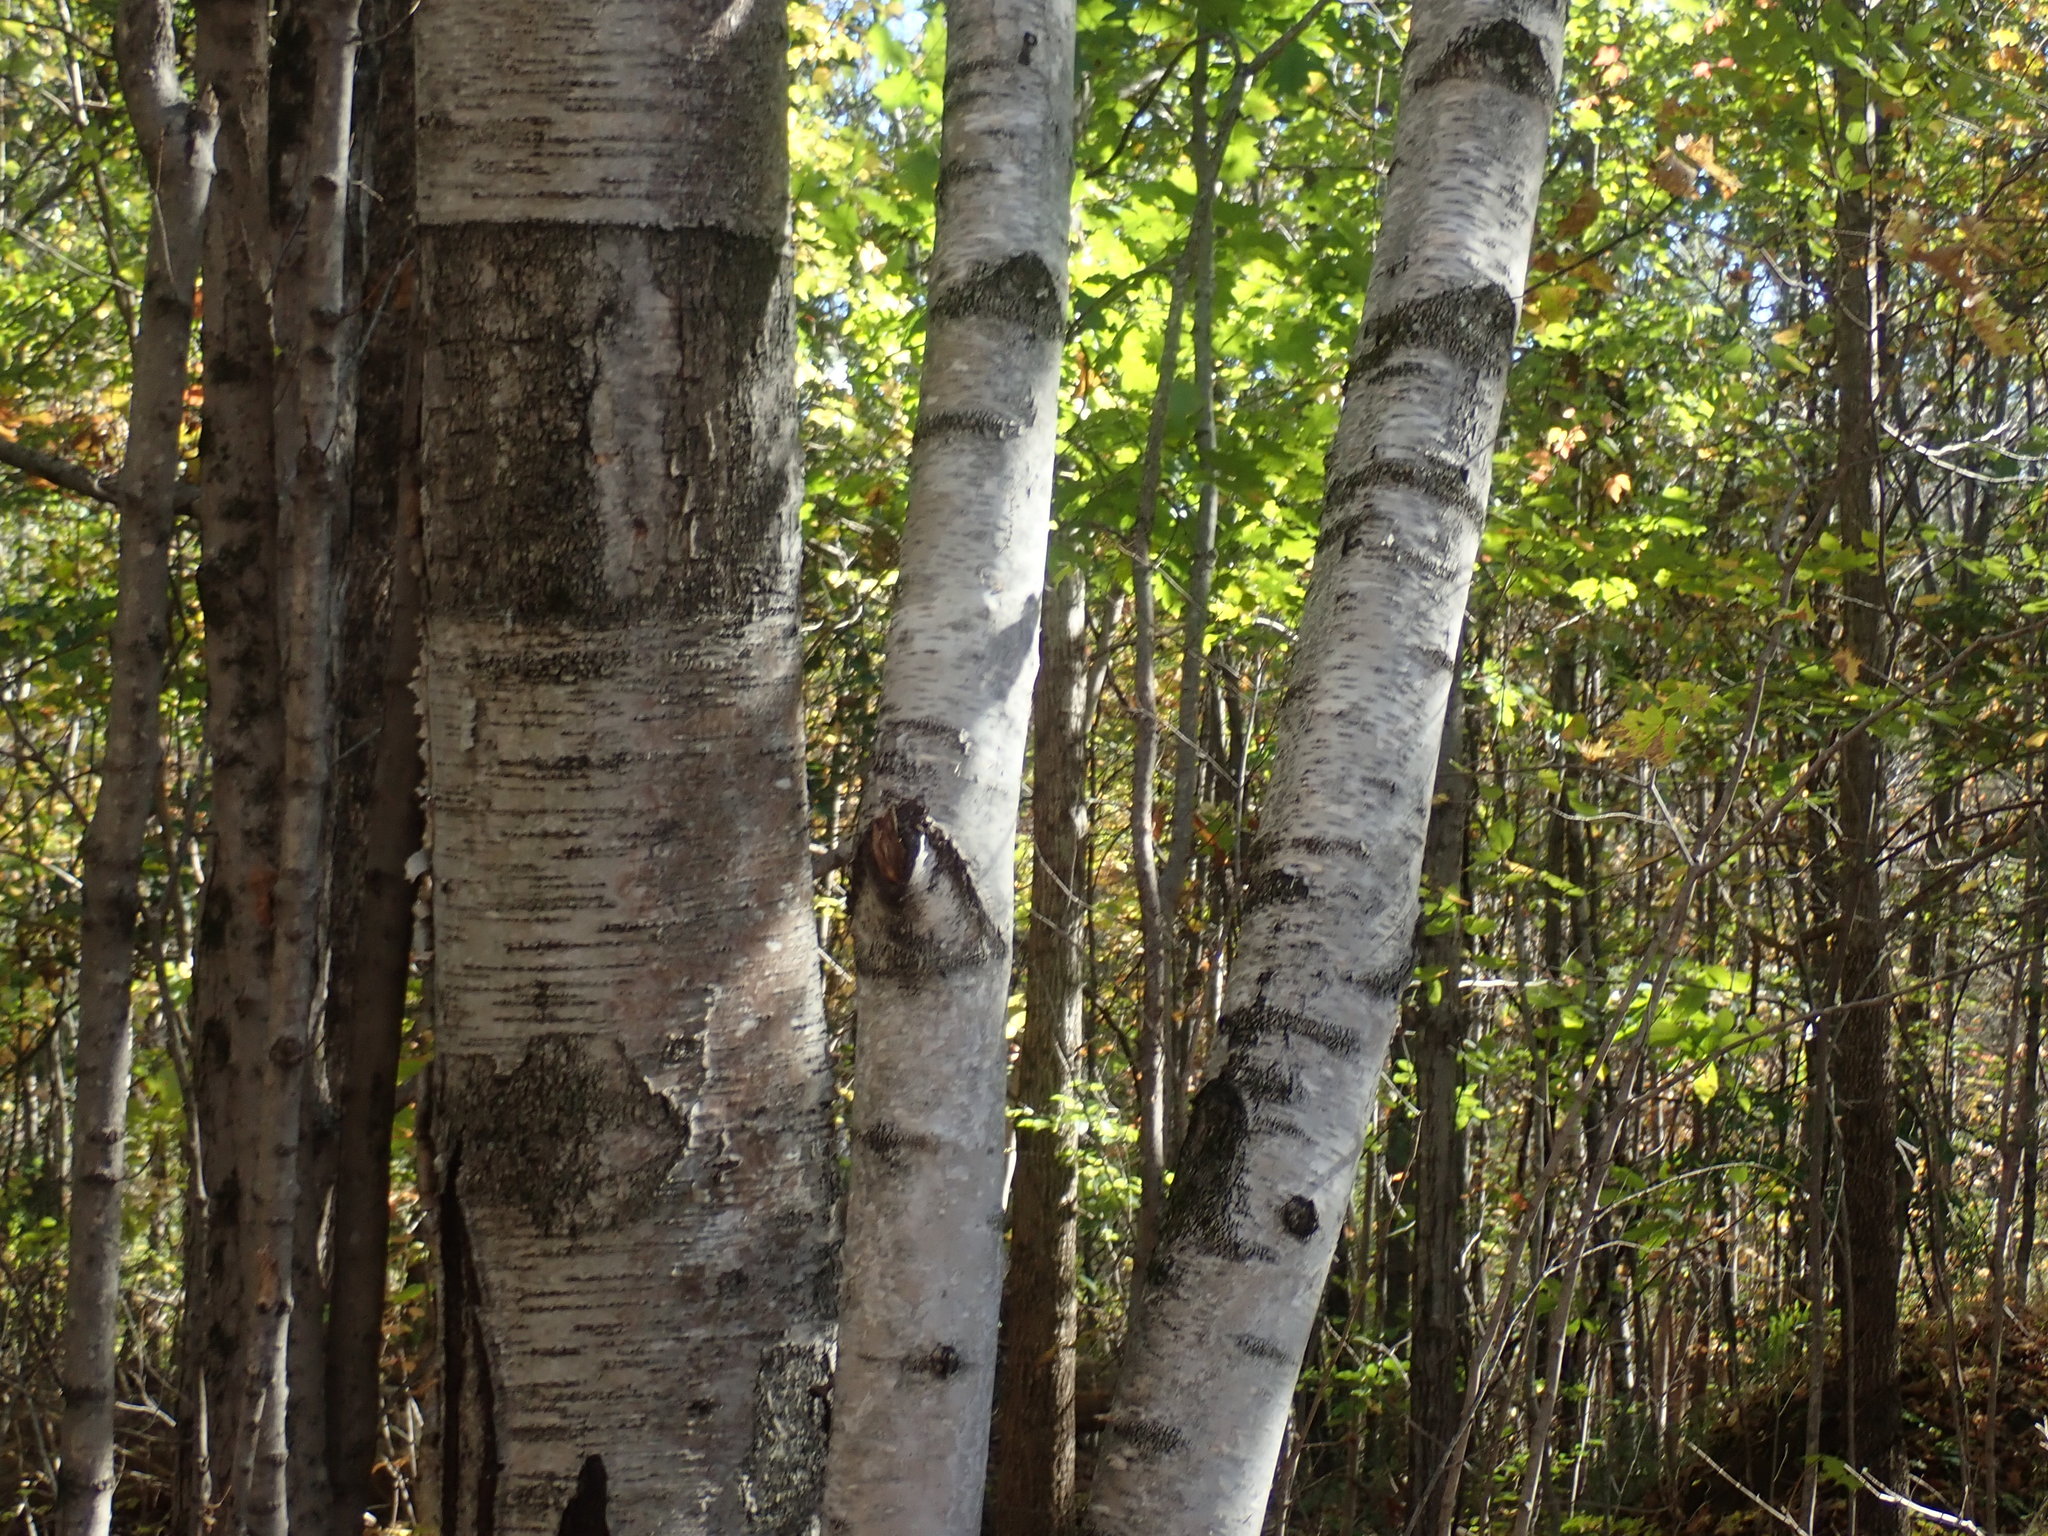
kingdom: Plantae
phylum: Tracheophyta
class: Magnoliopsida
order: Fagales
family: Betulaceae
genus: Betula
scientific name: Betula papyrifera
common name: Paper birch
